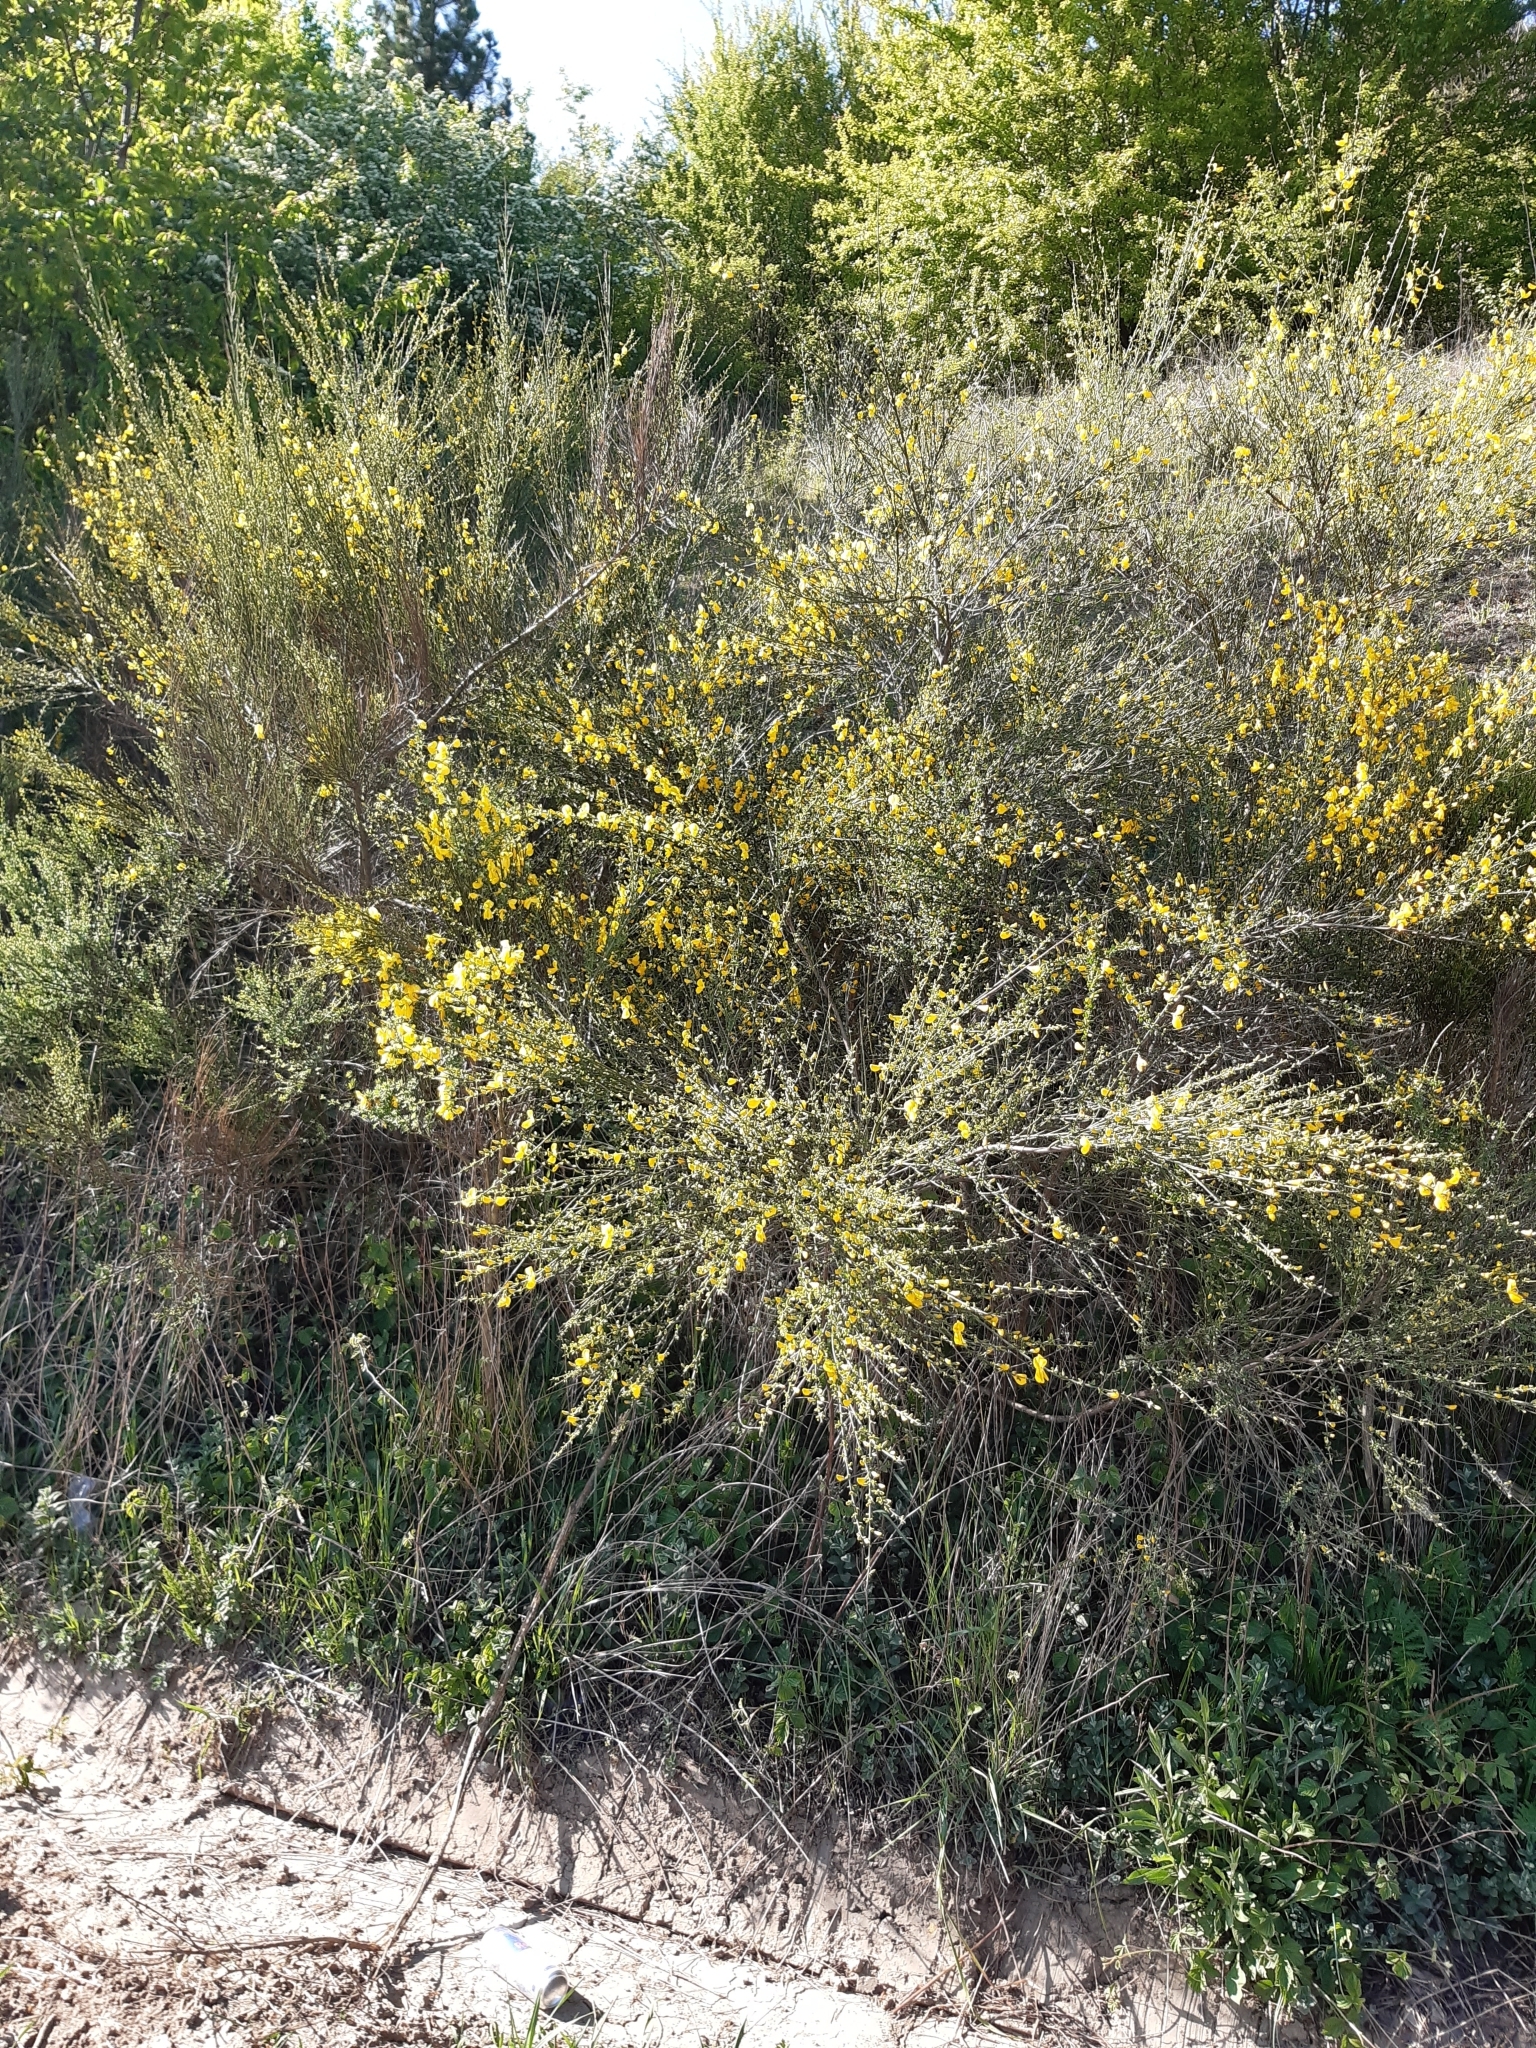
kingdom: Plantae
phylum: Tracheophyta
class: Magnoliopsida
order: Fabales
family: Fabaceae
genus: Cytisus
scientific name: Cytisus scoparius
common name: Scotch broom
